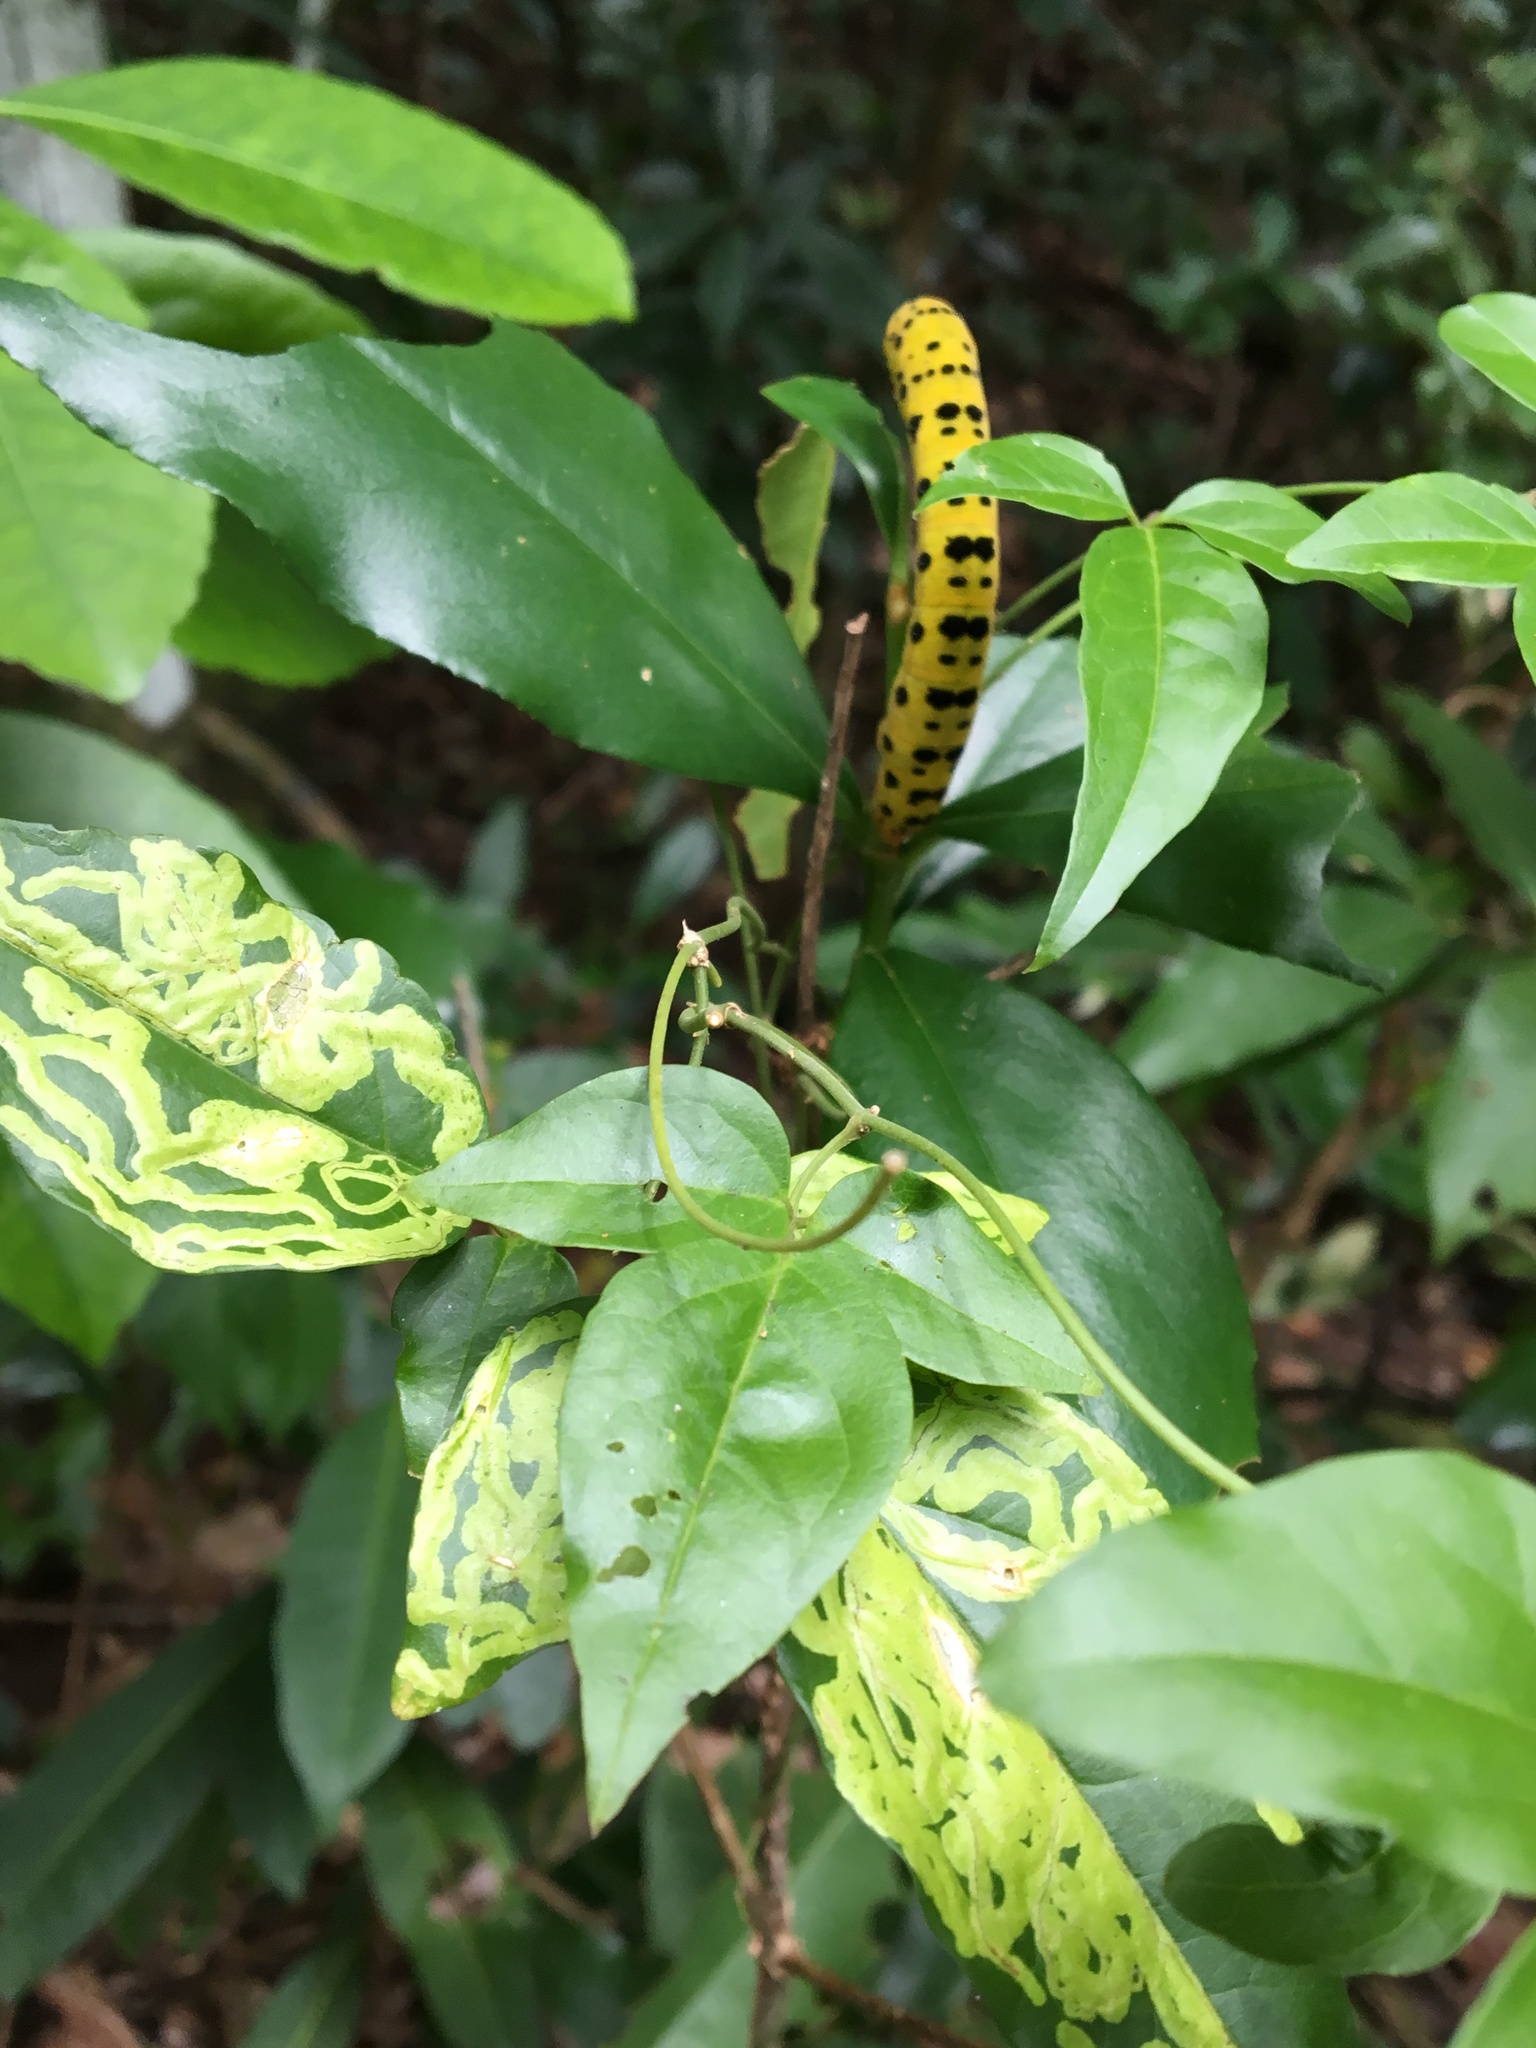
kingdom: Animalia
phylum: Arthropoda
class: Insecta
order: Lepidoptera
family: Geometridae
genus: Dysphania
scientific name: Dysphania numana
